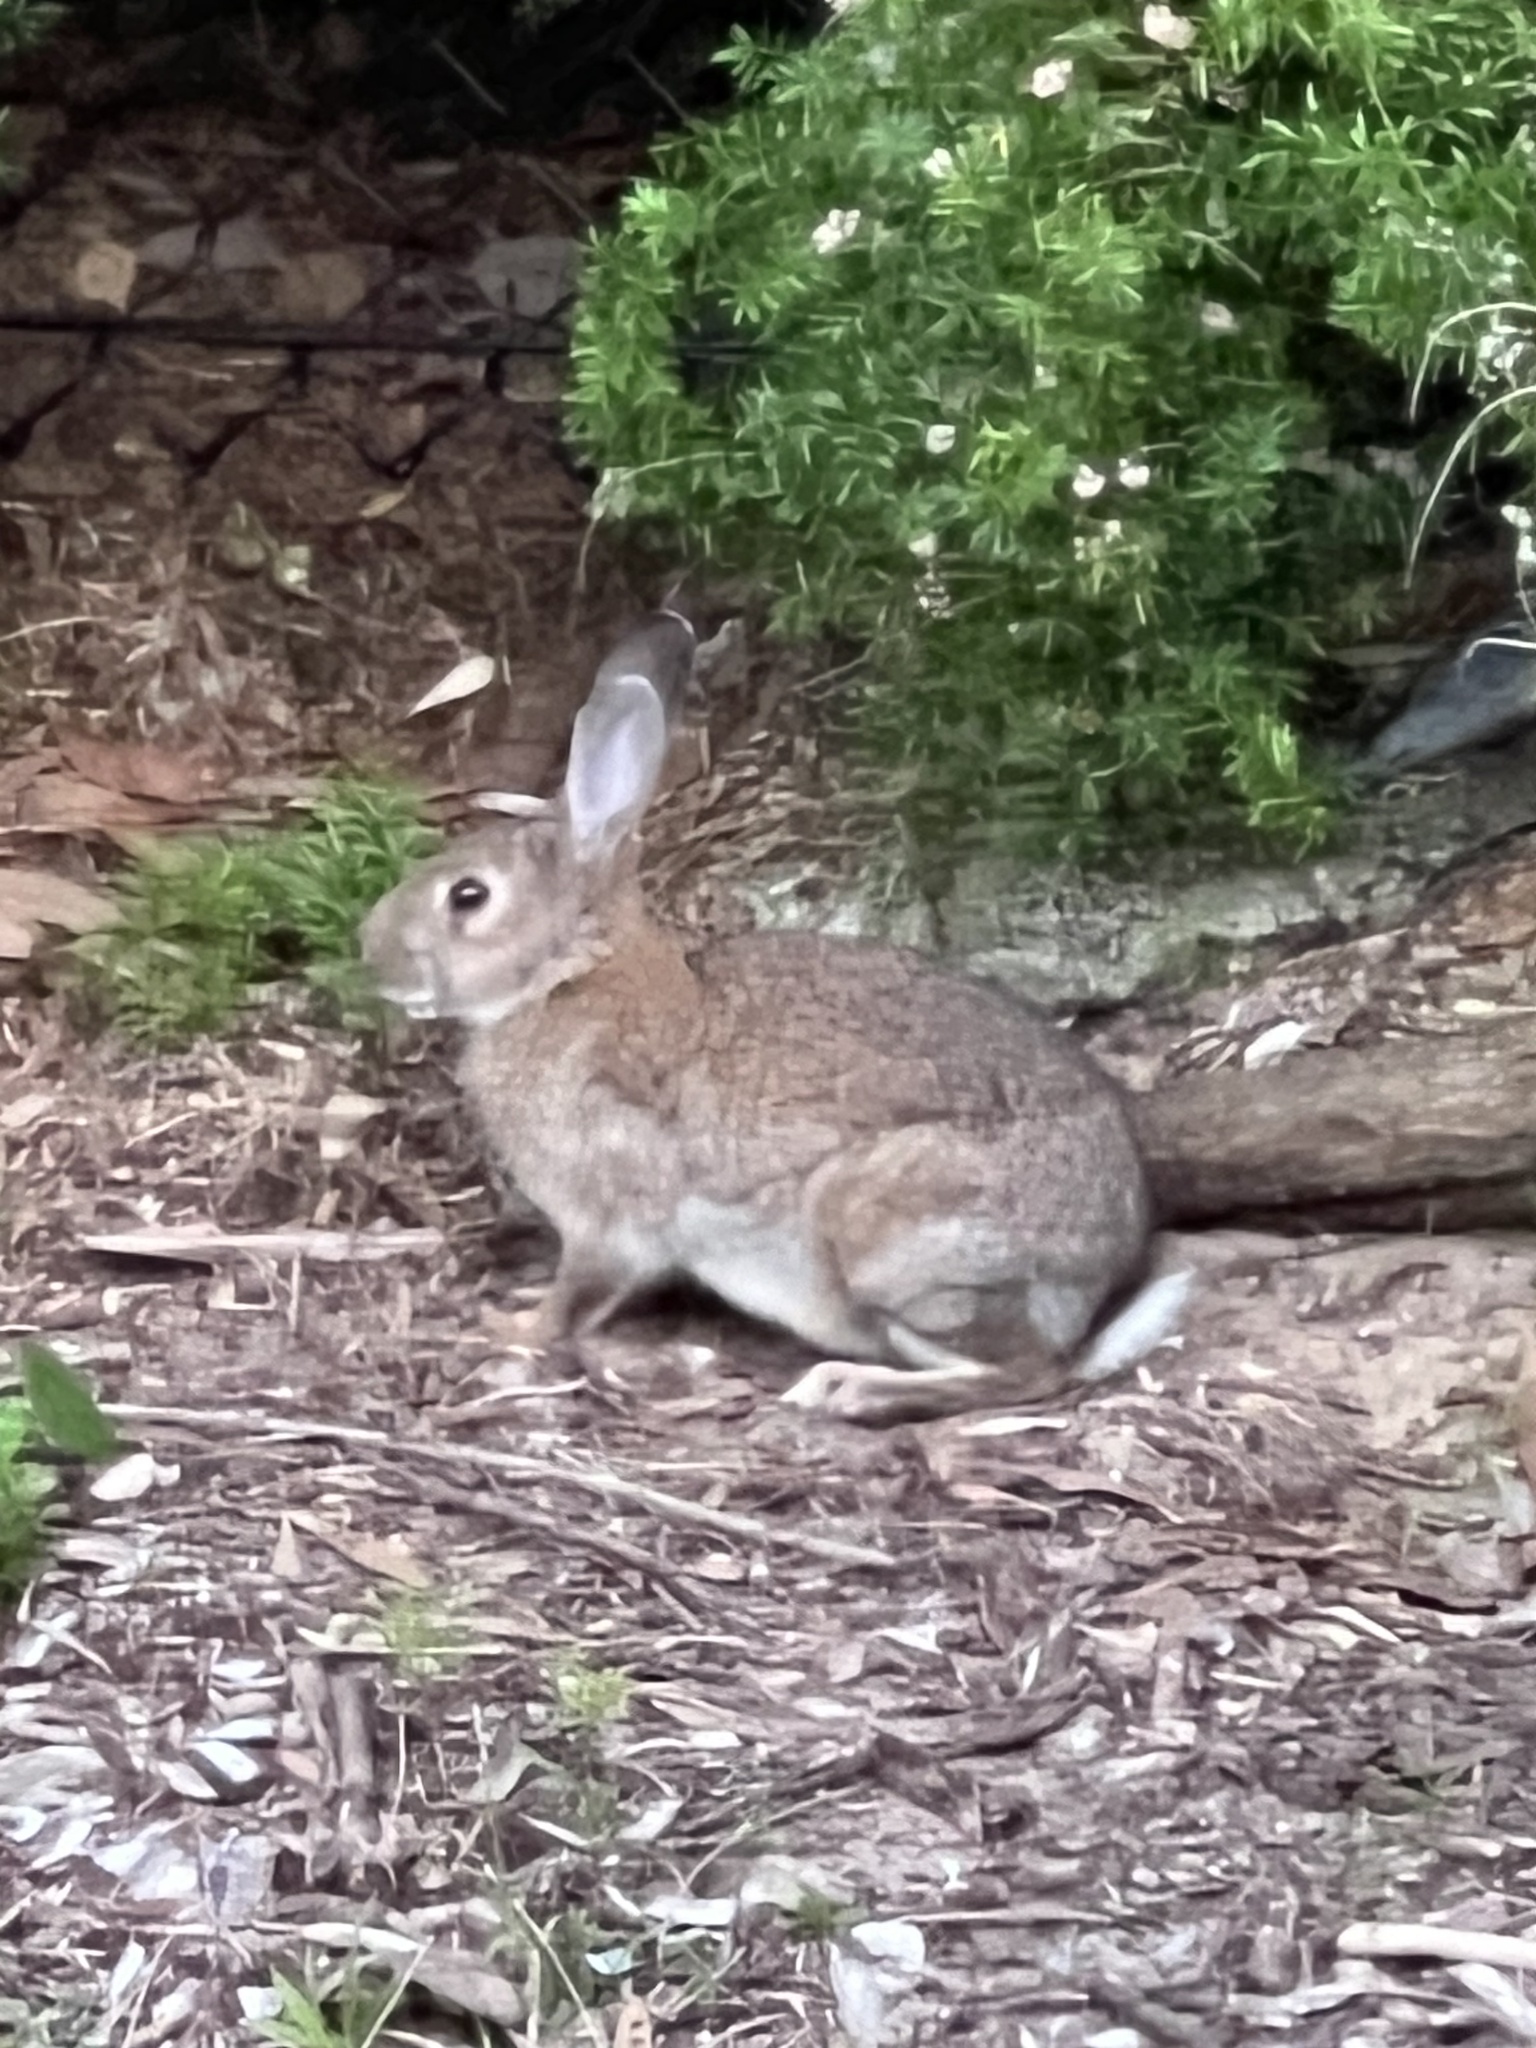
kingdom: Animalia
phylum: Chordata
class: Mammalia
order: Lagomorpha
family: Leporidae
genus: Oryctolagus
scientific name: Oryctolagus cuniculus
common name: European rabbit
